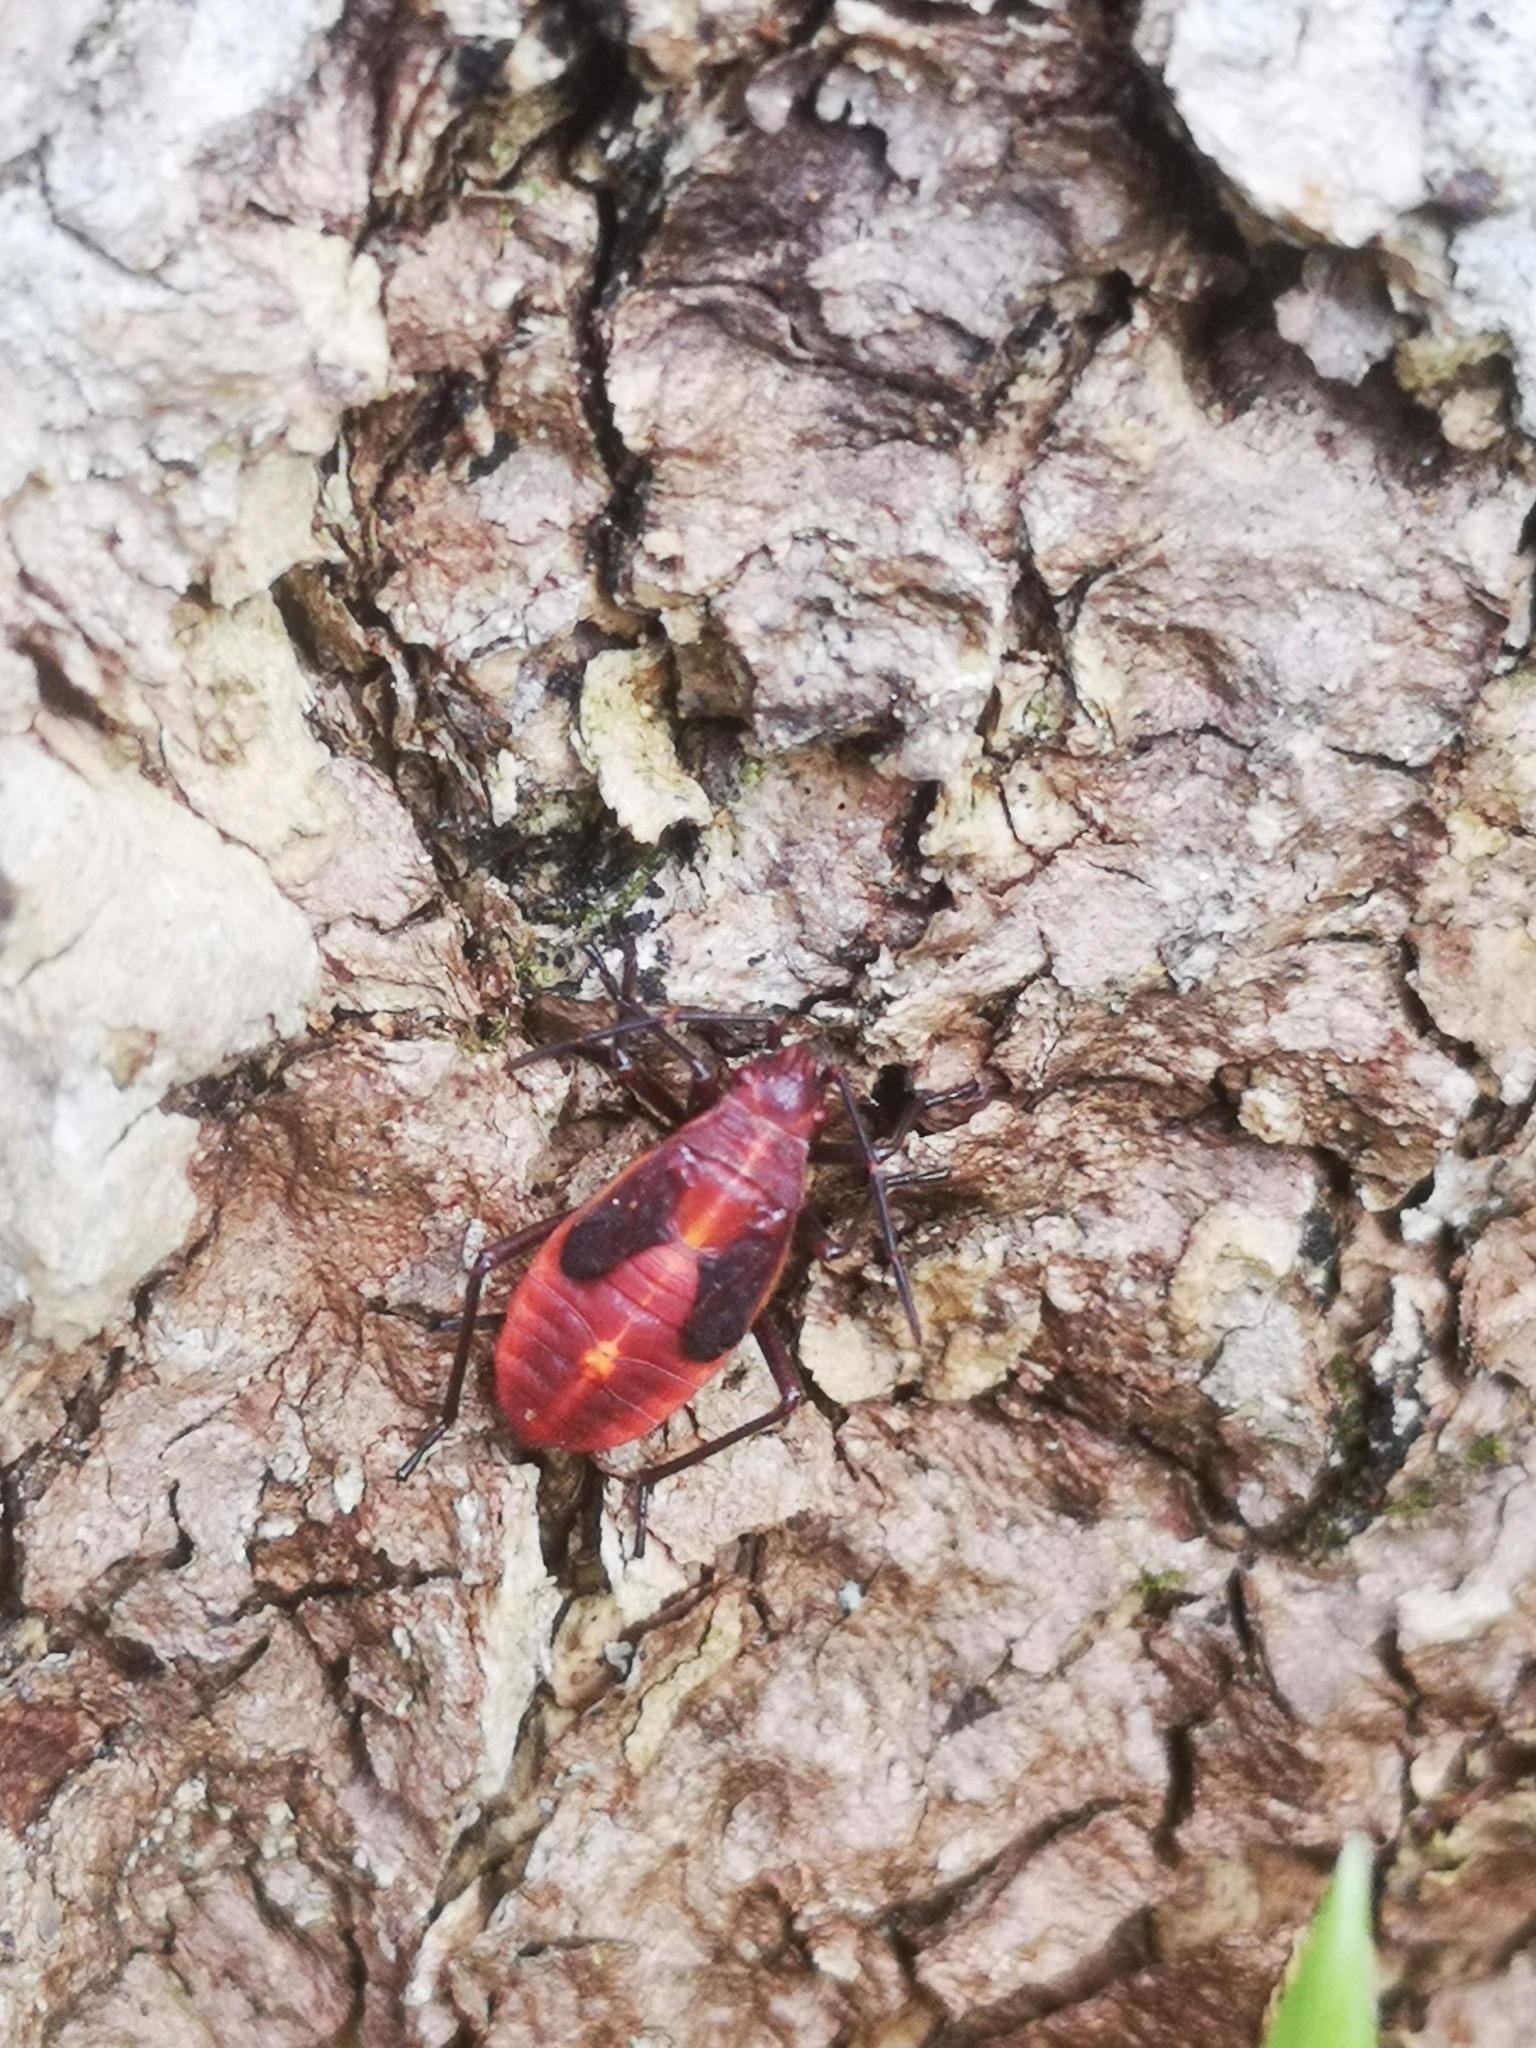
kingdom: Animalia
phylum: Arthropoda
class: Insecta
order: Hemiptera
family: Rhopalidae
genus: Boisea
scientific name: Boisea trivittata
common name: Boxelder bug
